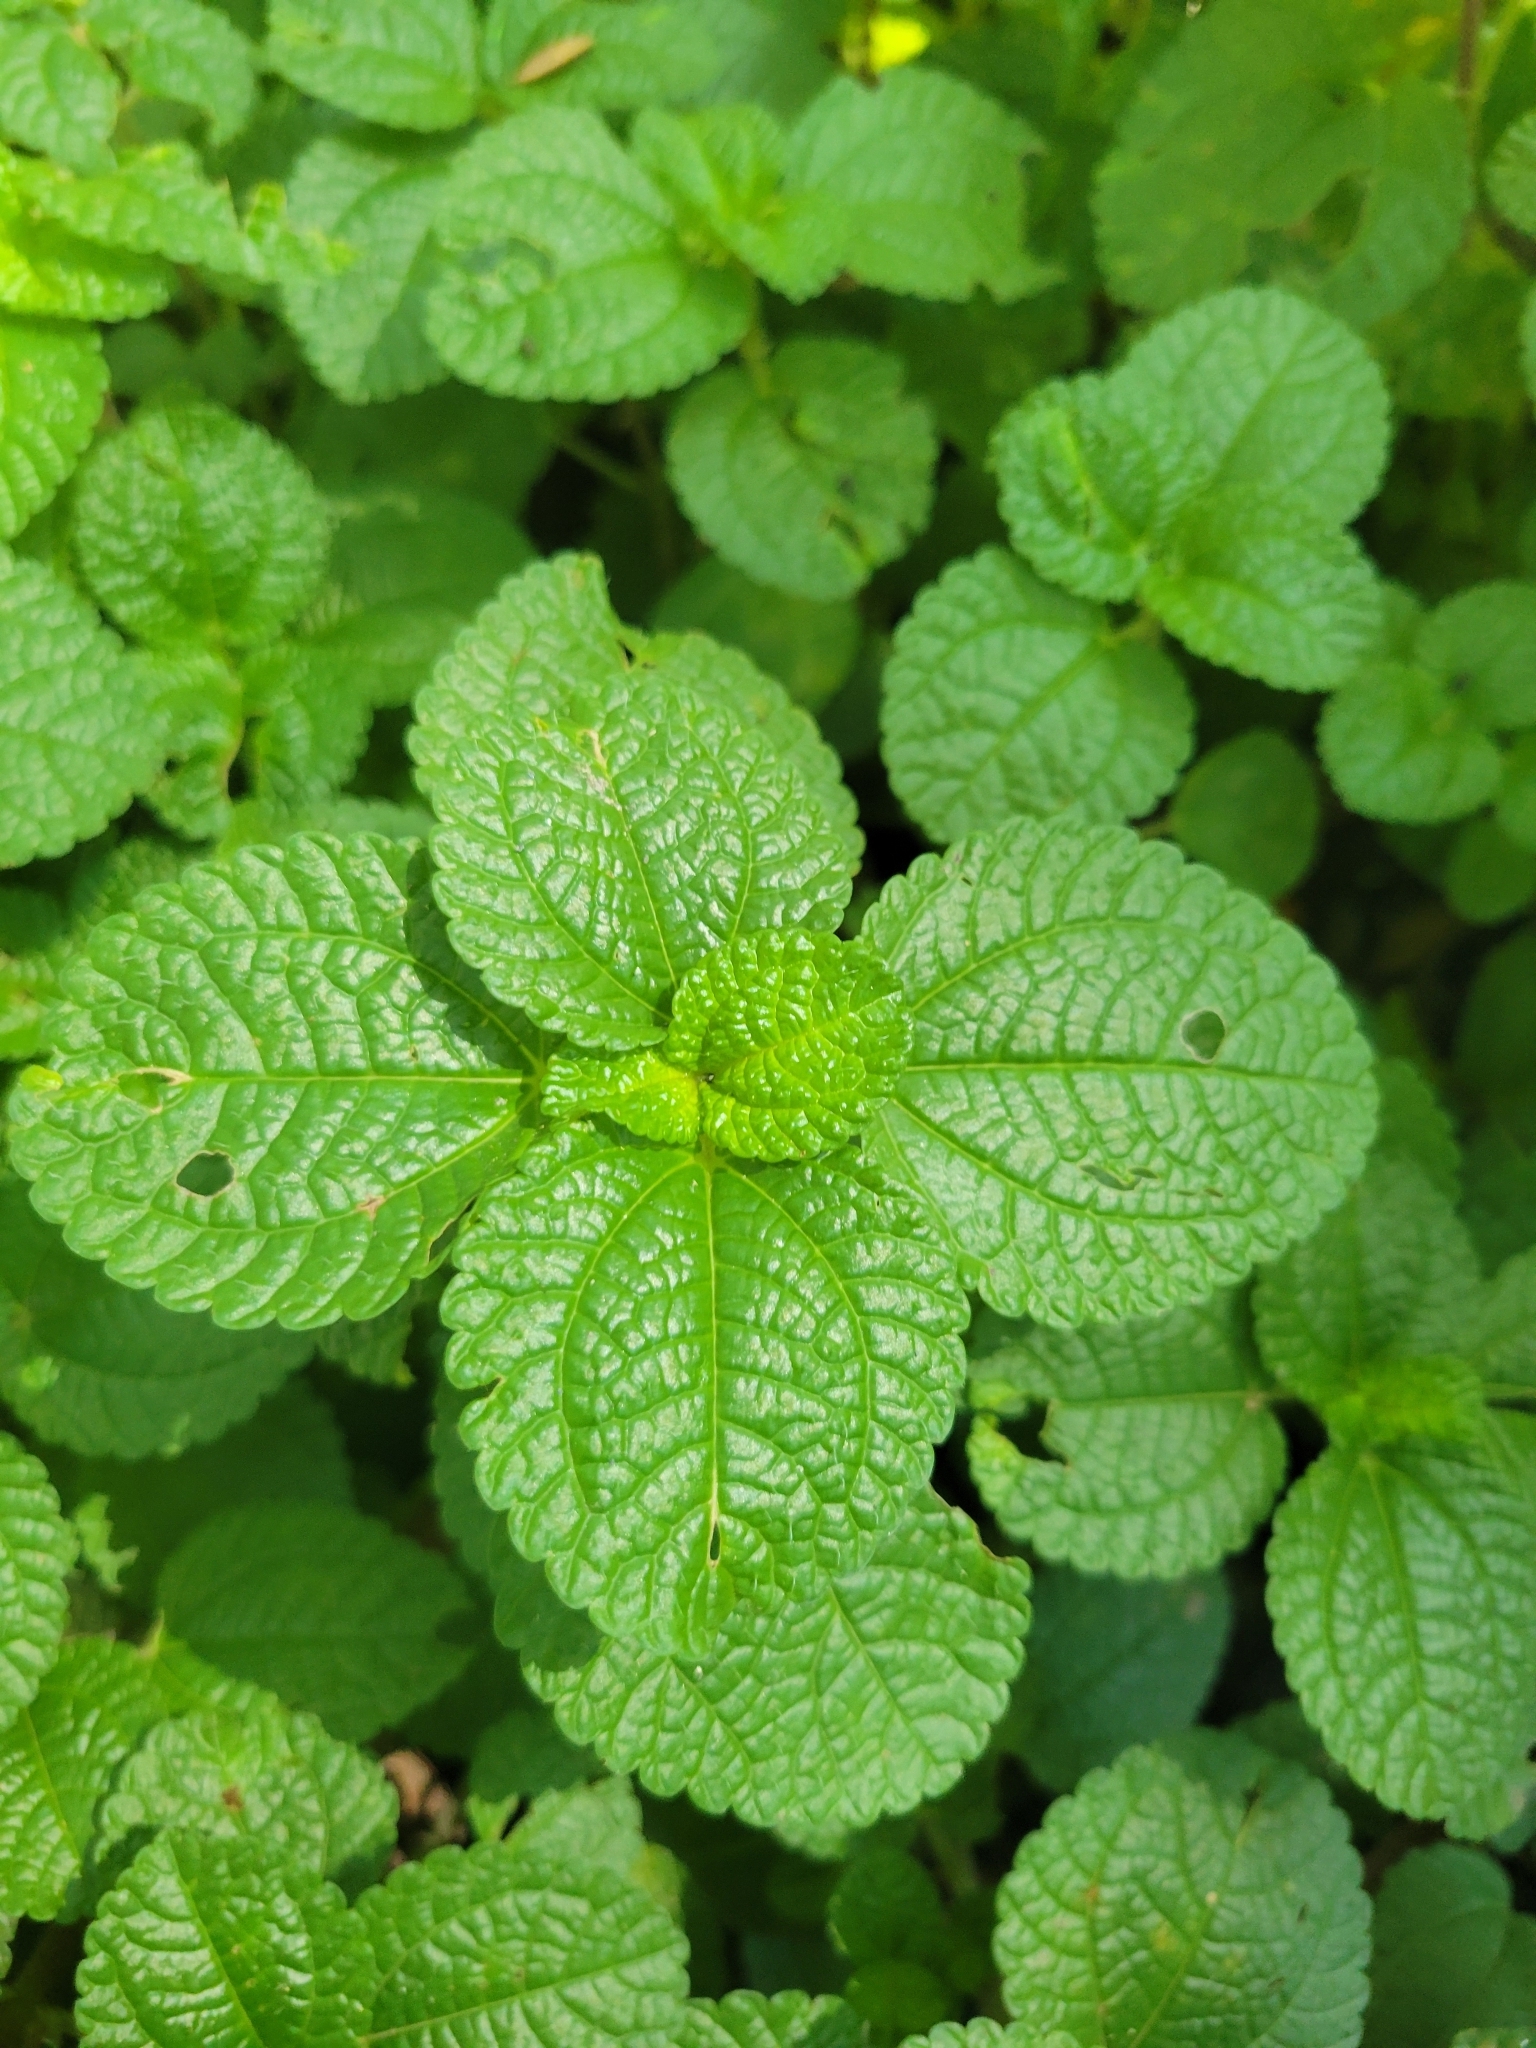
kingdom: Plantae
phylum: Tracheophyta
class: Magnoliopsida
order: Rosales
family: Urticaceae
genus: Pilea
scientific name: Pilea nummulariifolia
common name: Creeping-charlie
